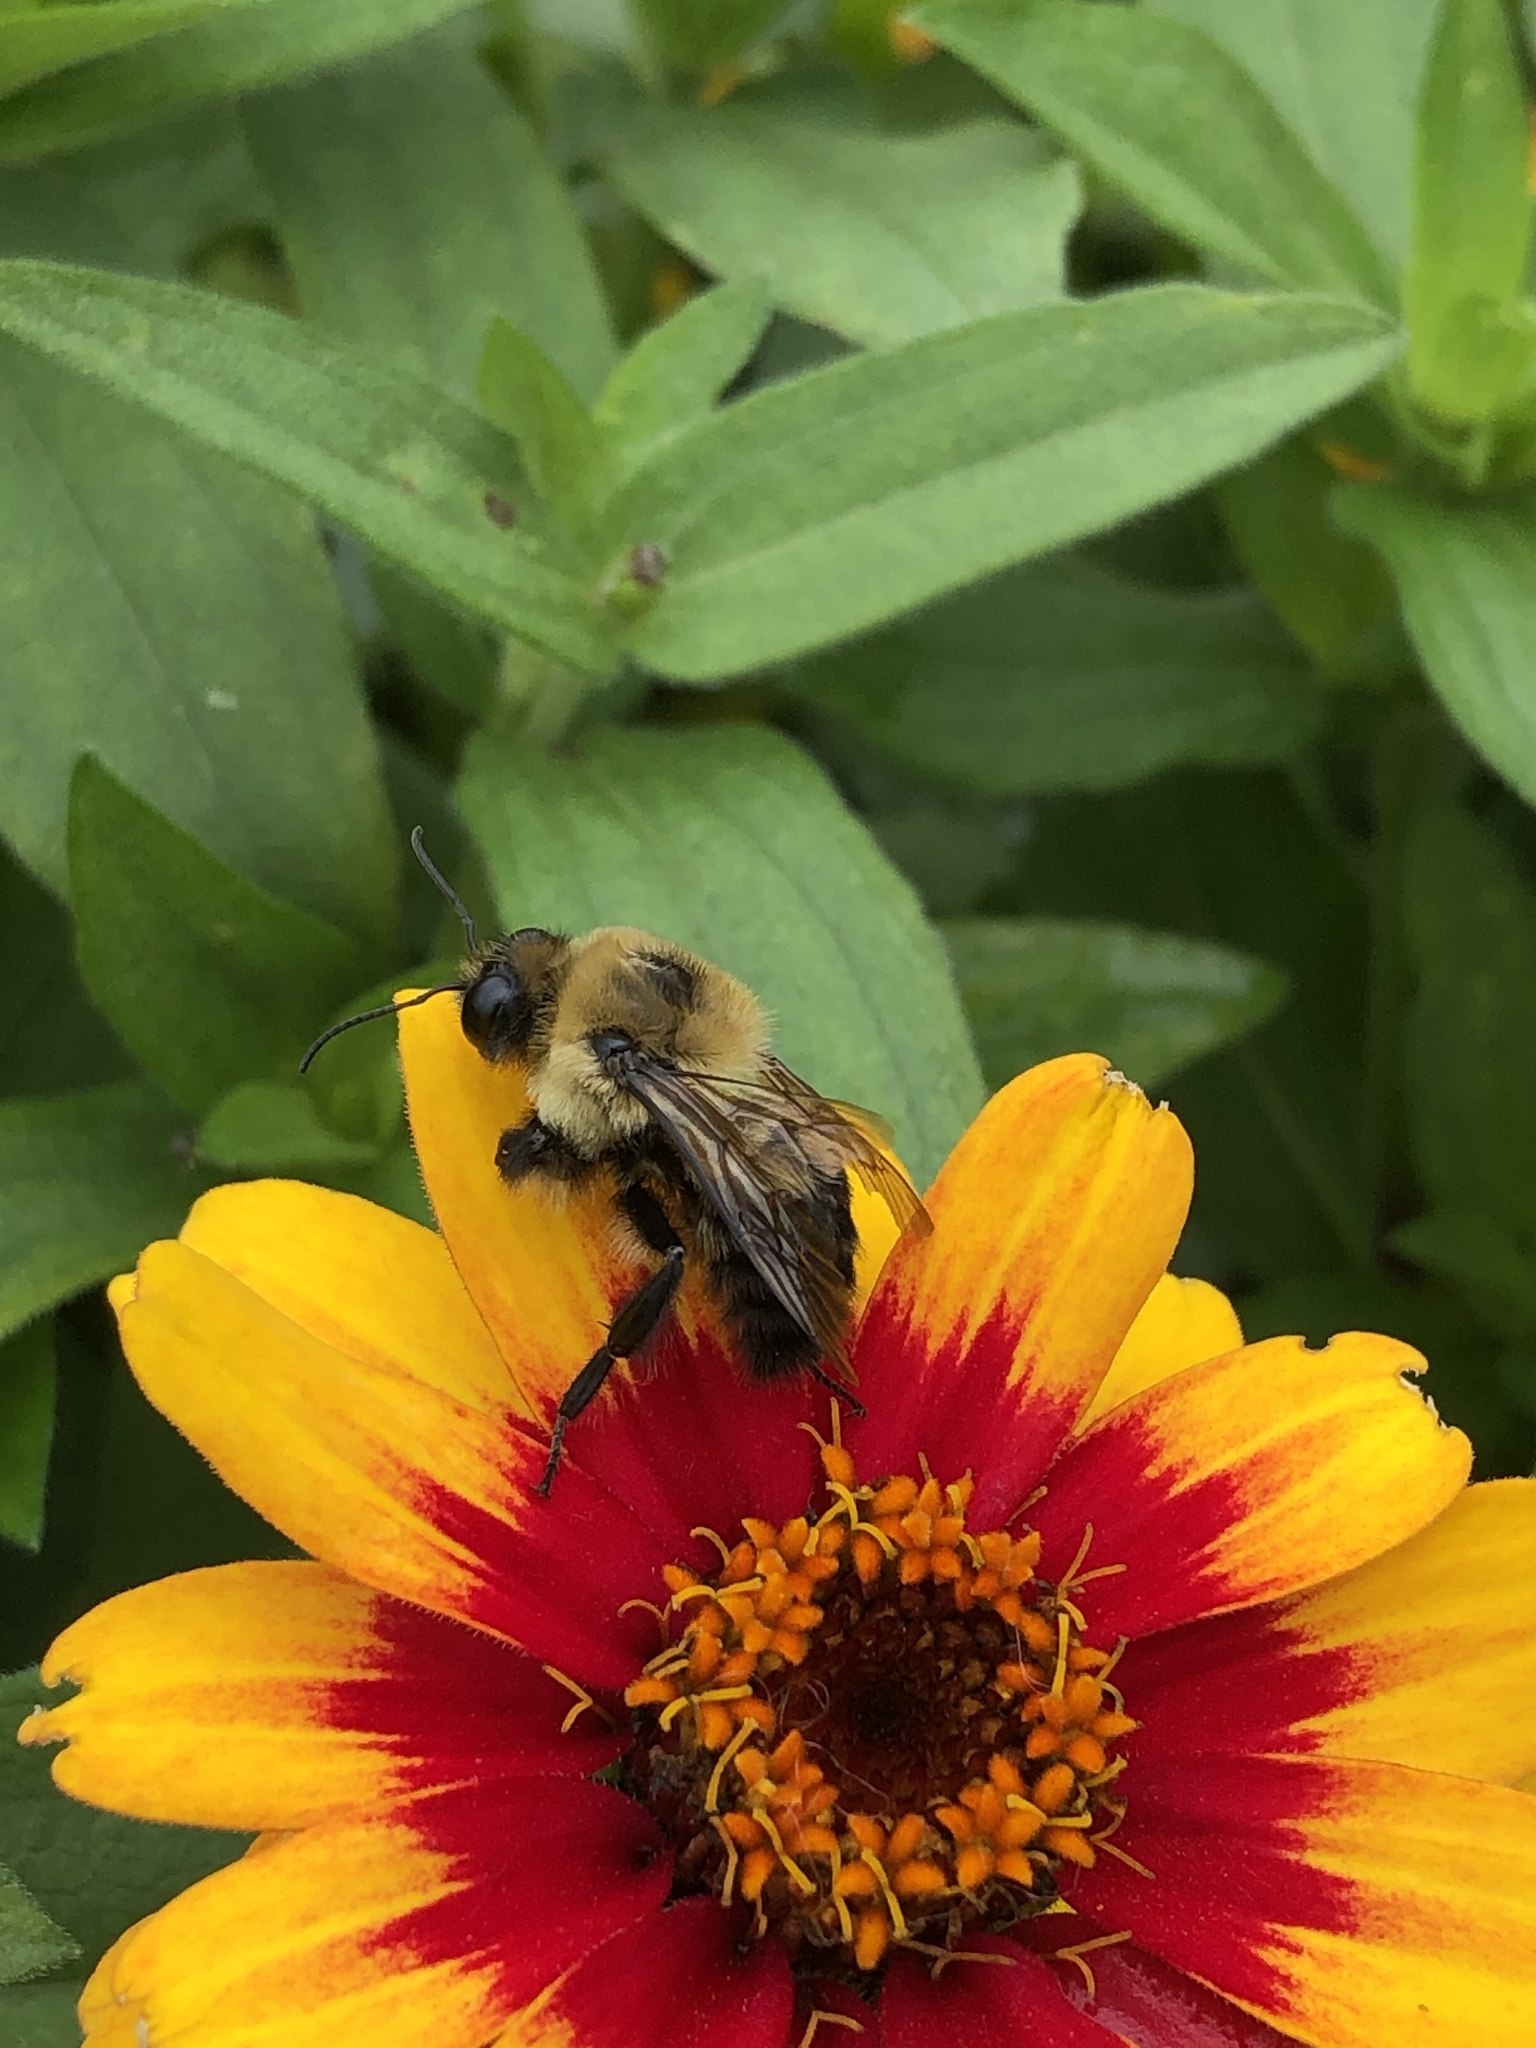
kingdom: Animalia
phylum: Arthropoda
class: Insecta
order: Hymenoptera
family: Apidae
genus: Bombus
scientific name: Bombus griseocollis
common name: Brown-belted bumble bee
